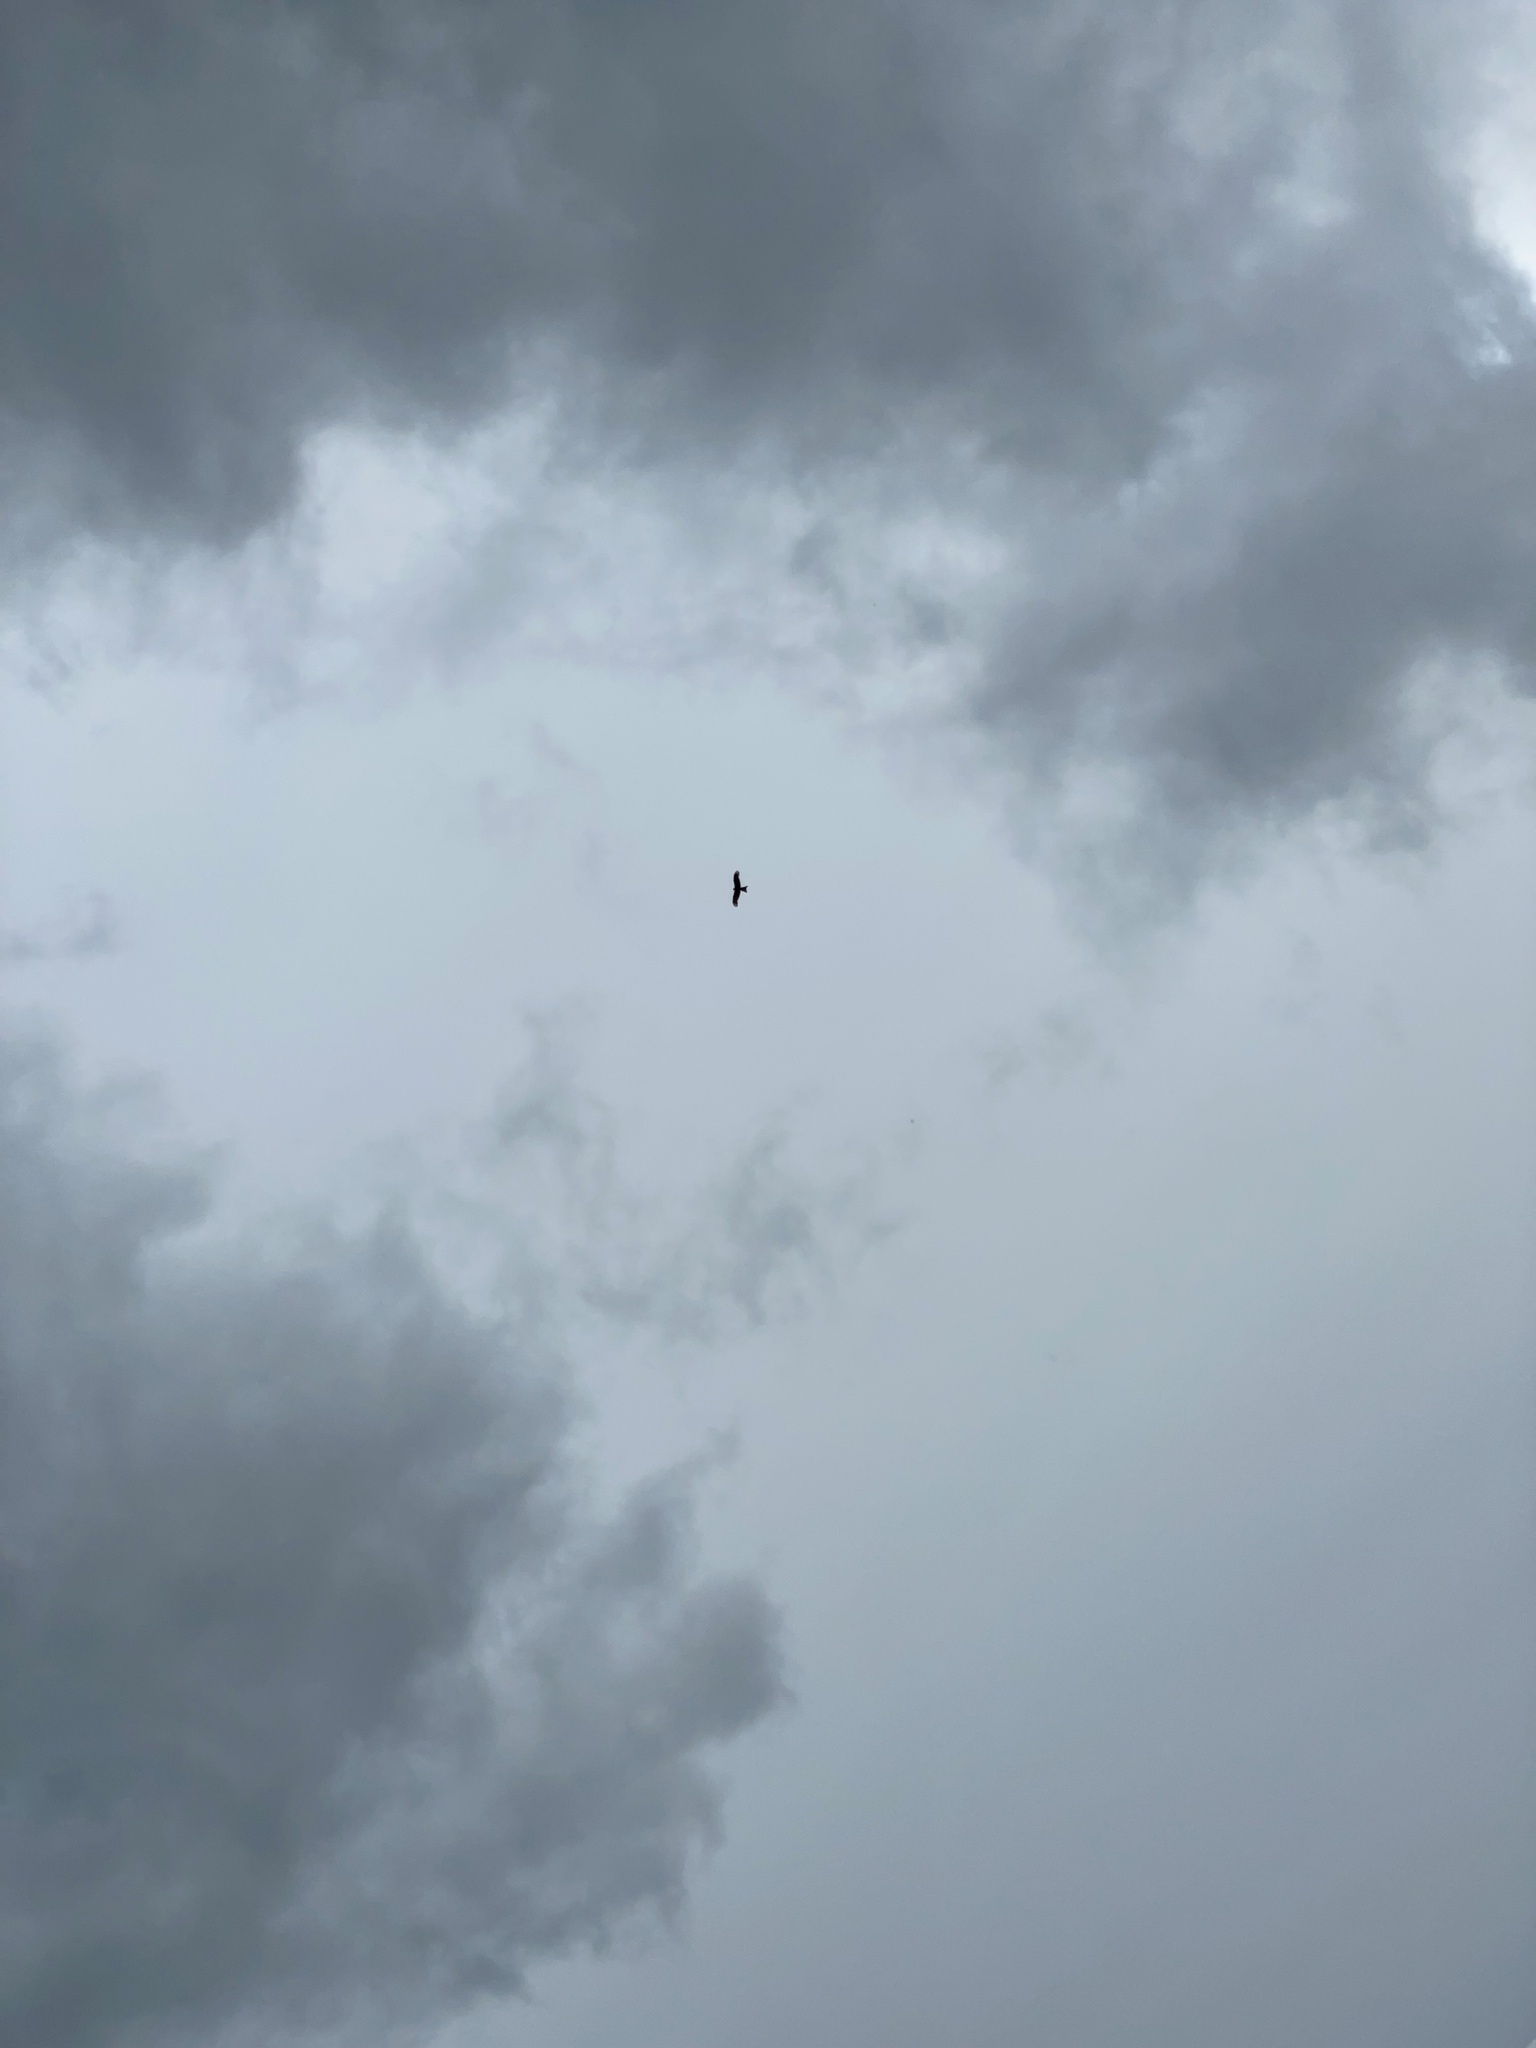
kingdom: Animalia
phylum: Chordata
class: Aves
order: Accipitriformes
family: Accipitridae
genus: Milvus
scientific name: Milvus milvus
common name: Red kite
